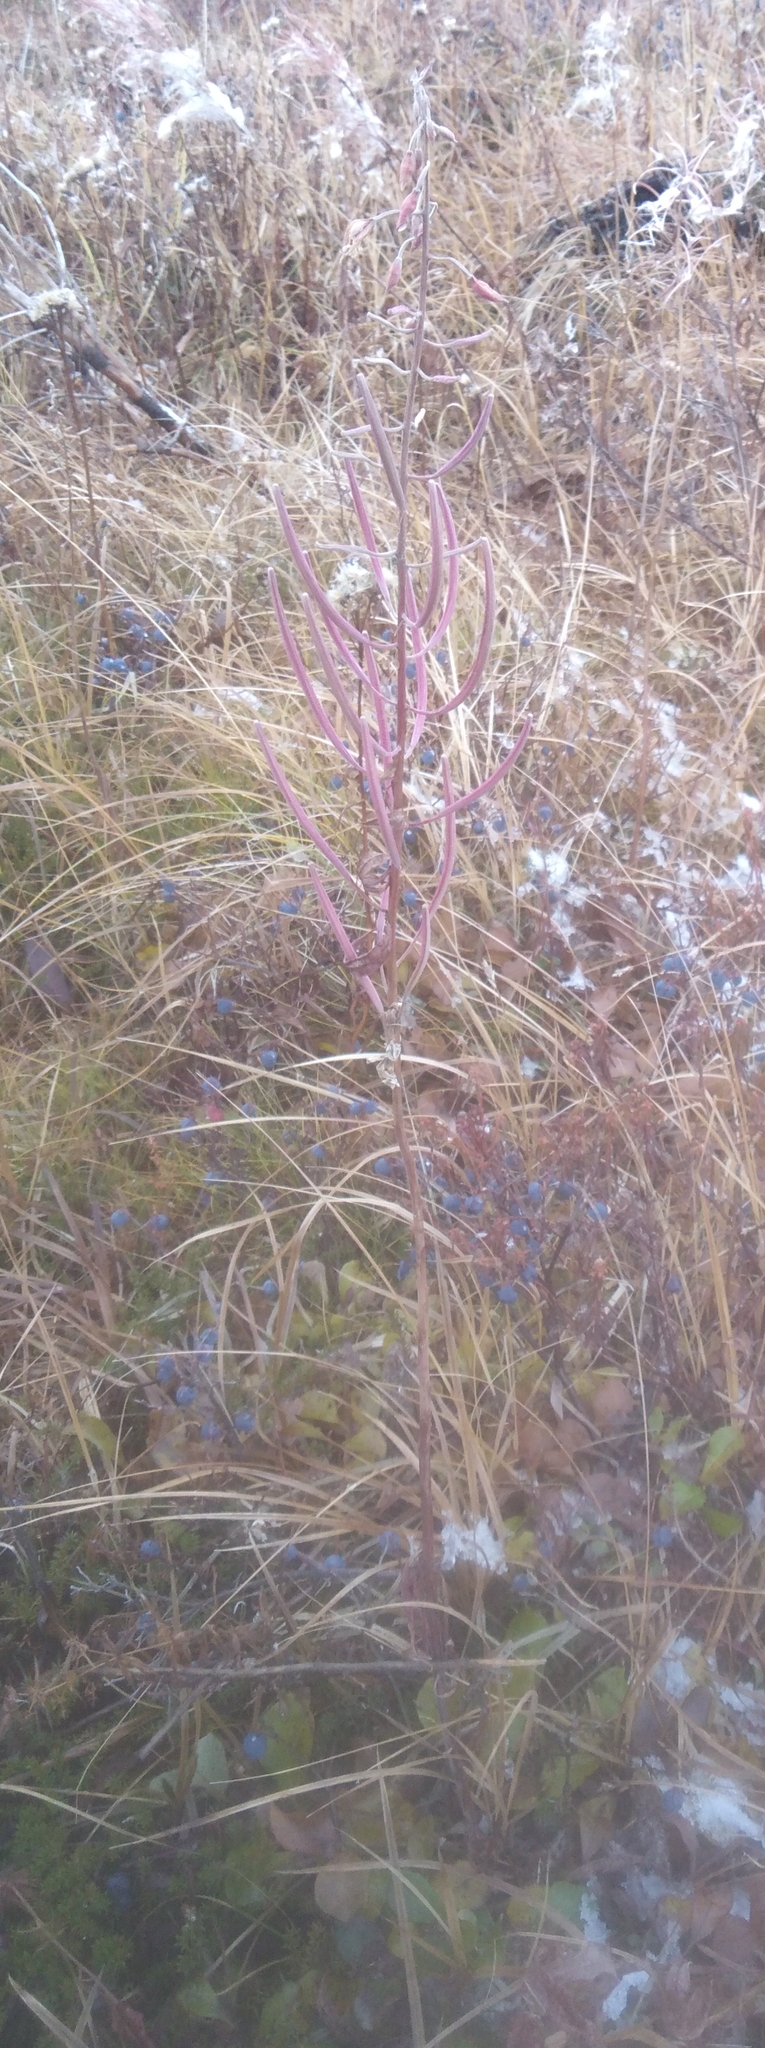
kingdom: Plantae
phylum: Tracheophyta
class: Magnoliopsida
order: Myrtales
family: Onagraceae
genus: Chamaenerion
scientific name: Chamaenerion angustifolium
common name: Fireweed
